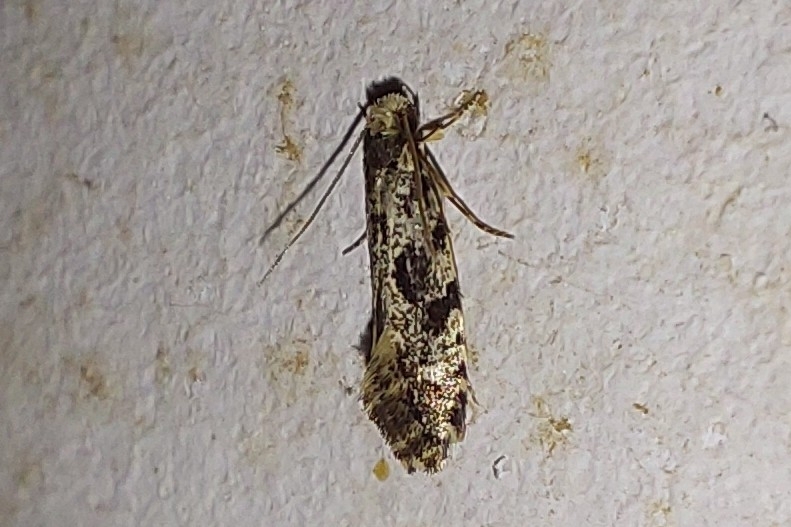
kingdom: Animalia
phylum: Arthropoda
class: Insecta
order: Lepidoptera
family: Tineidae
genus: Nemapogon
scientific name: Nemapogon granella
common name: European grain moth
